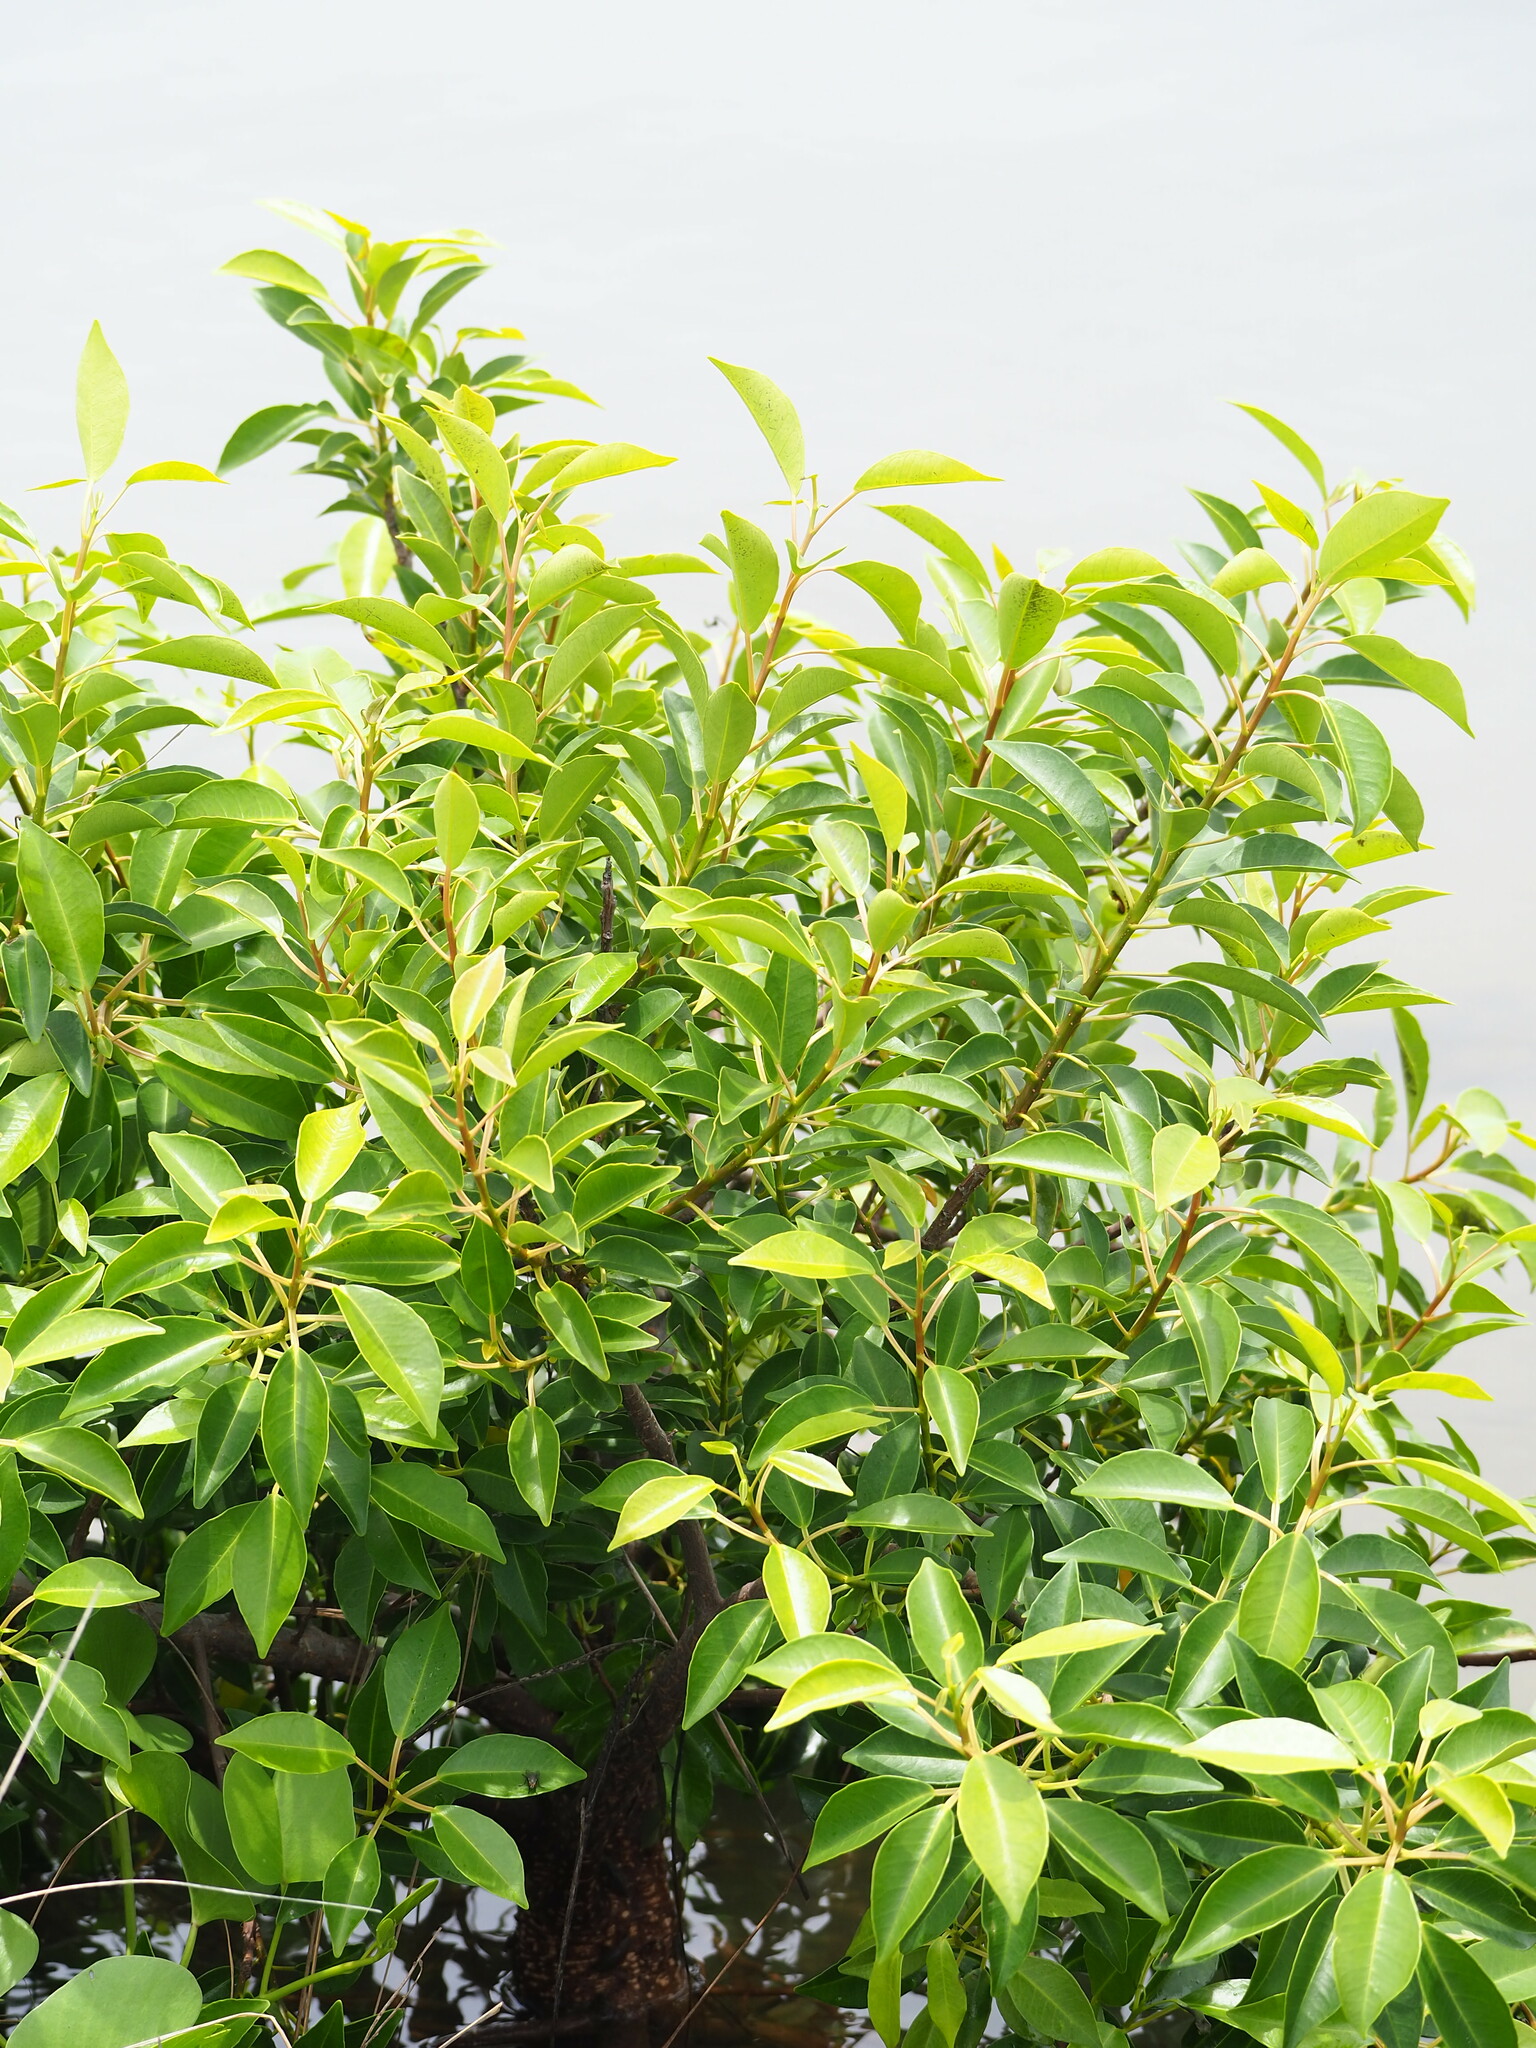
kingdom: Plantae
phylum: Tracheophyta
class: Magnoliopsida
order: Malpighiales
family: Euphorbiaceae
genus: Excoecaria
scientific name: Excoecaria agallocha
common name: River poisontree
